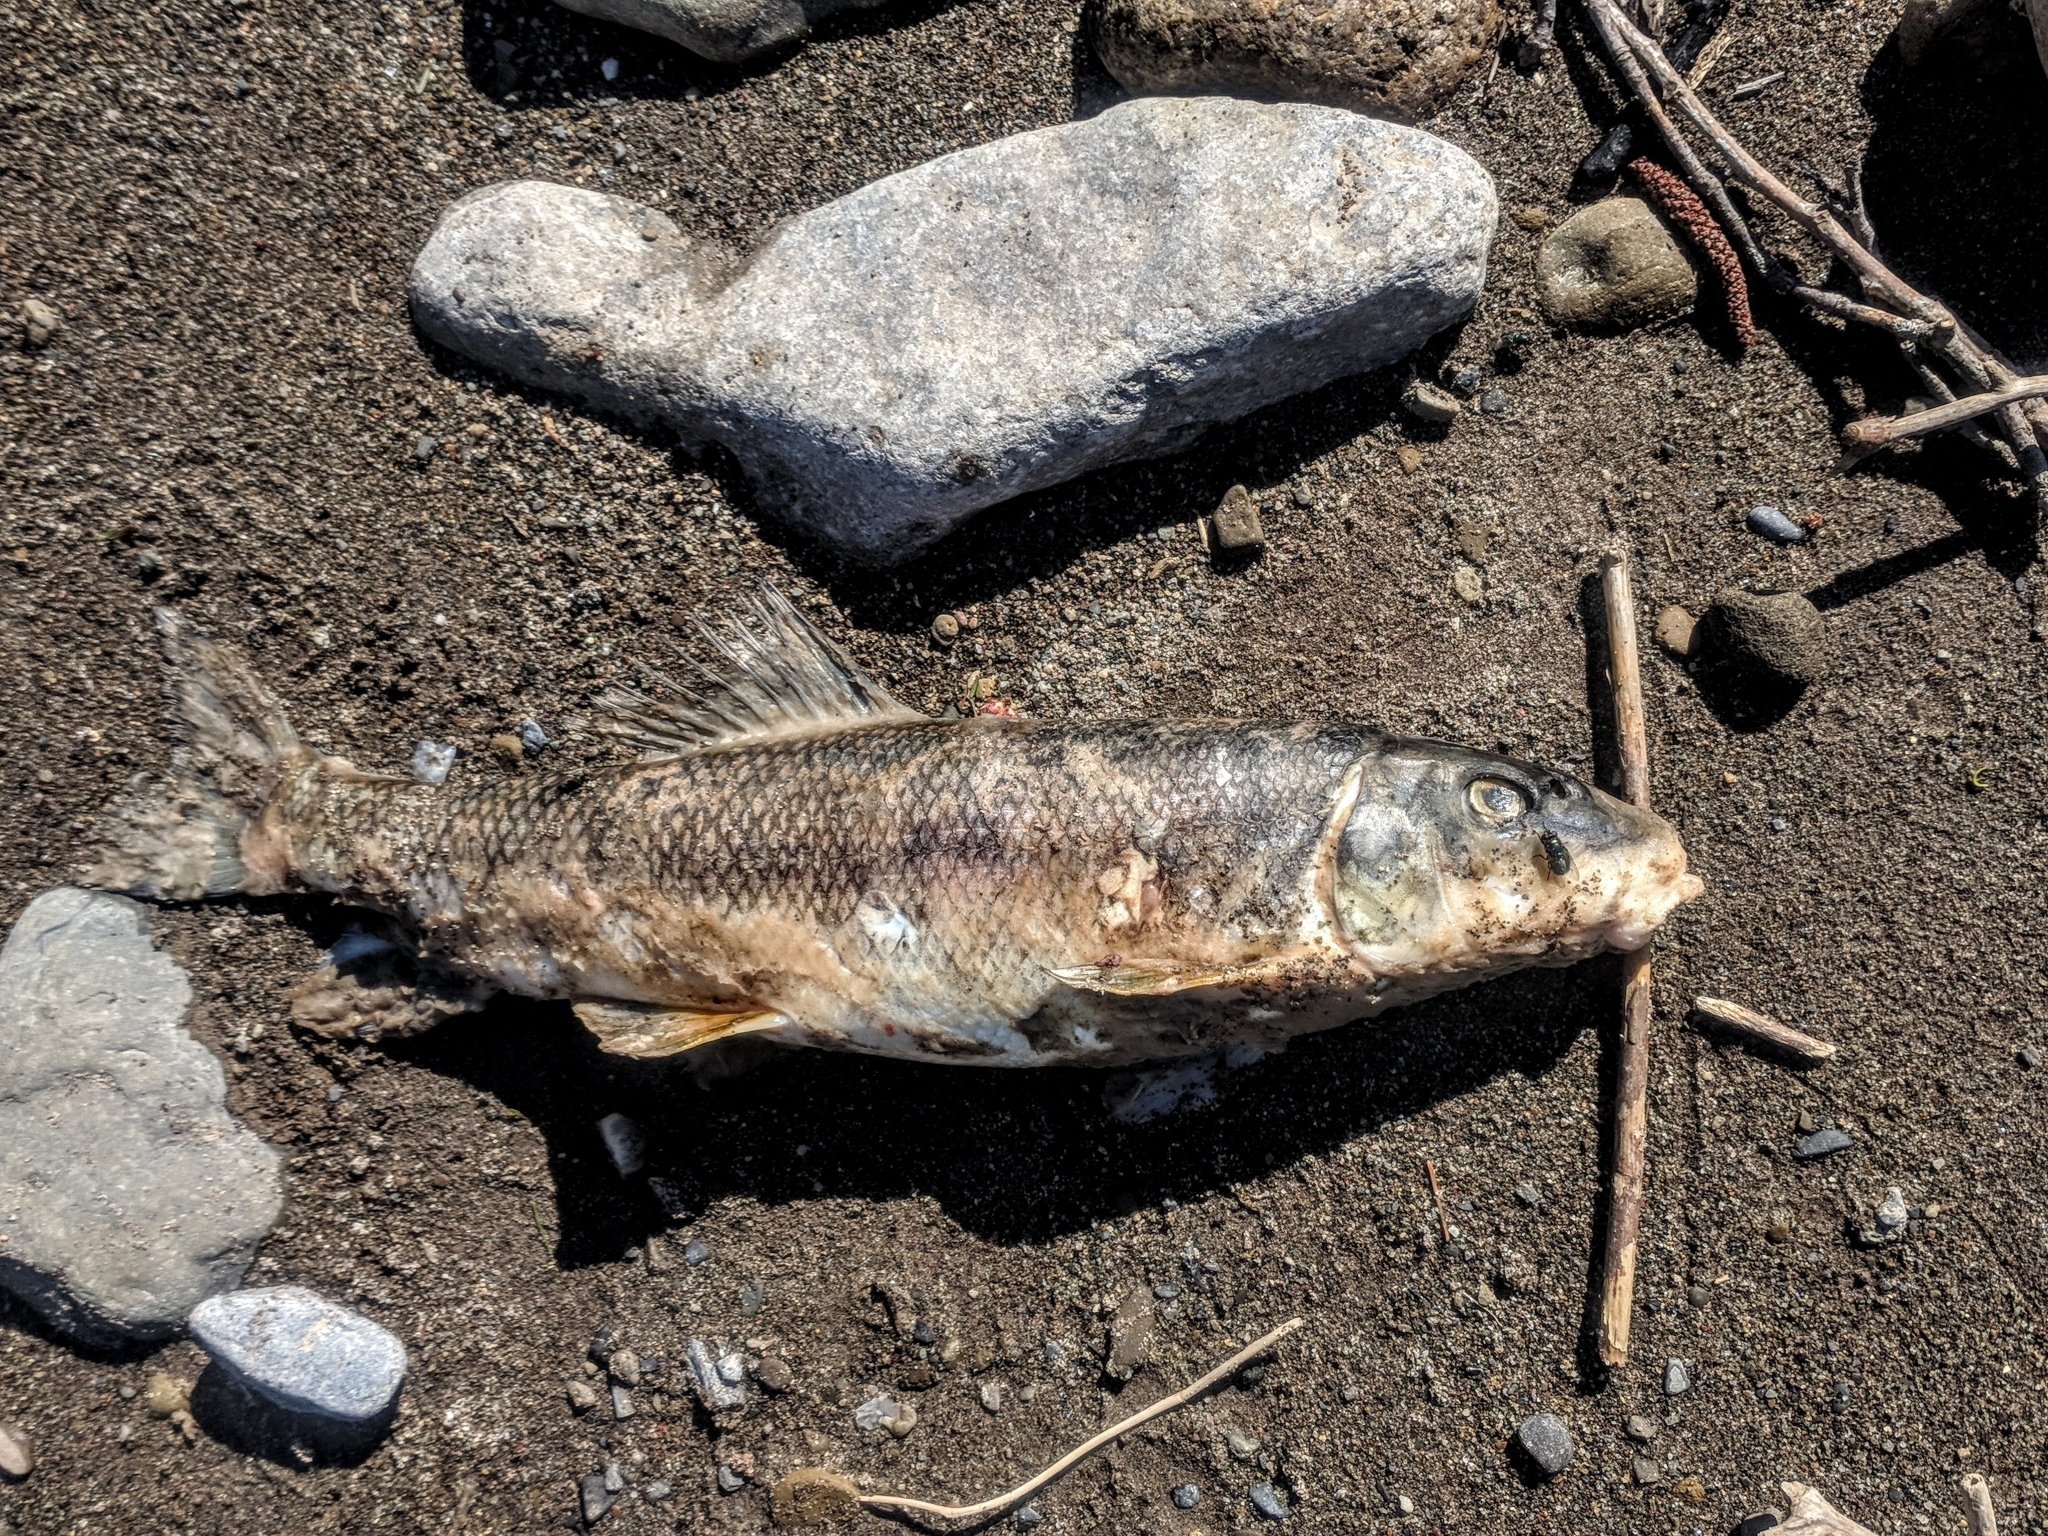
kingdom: Animalia
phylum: Chordata
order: Cypriniformes
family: Catostomidae
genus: Catostomus
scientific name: Catostomus commersonii
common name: White sucker
